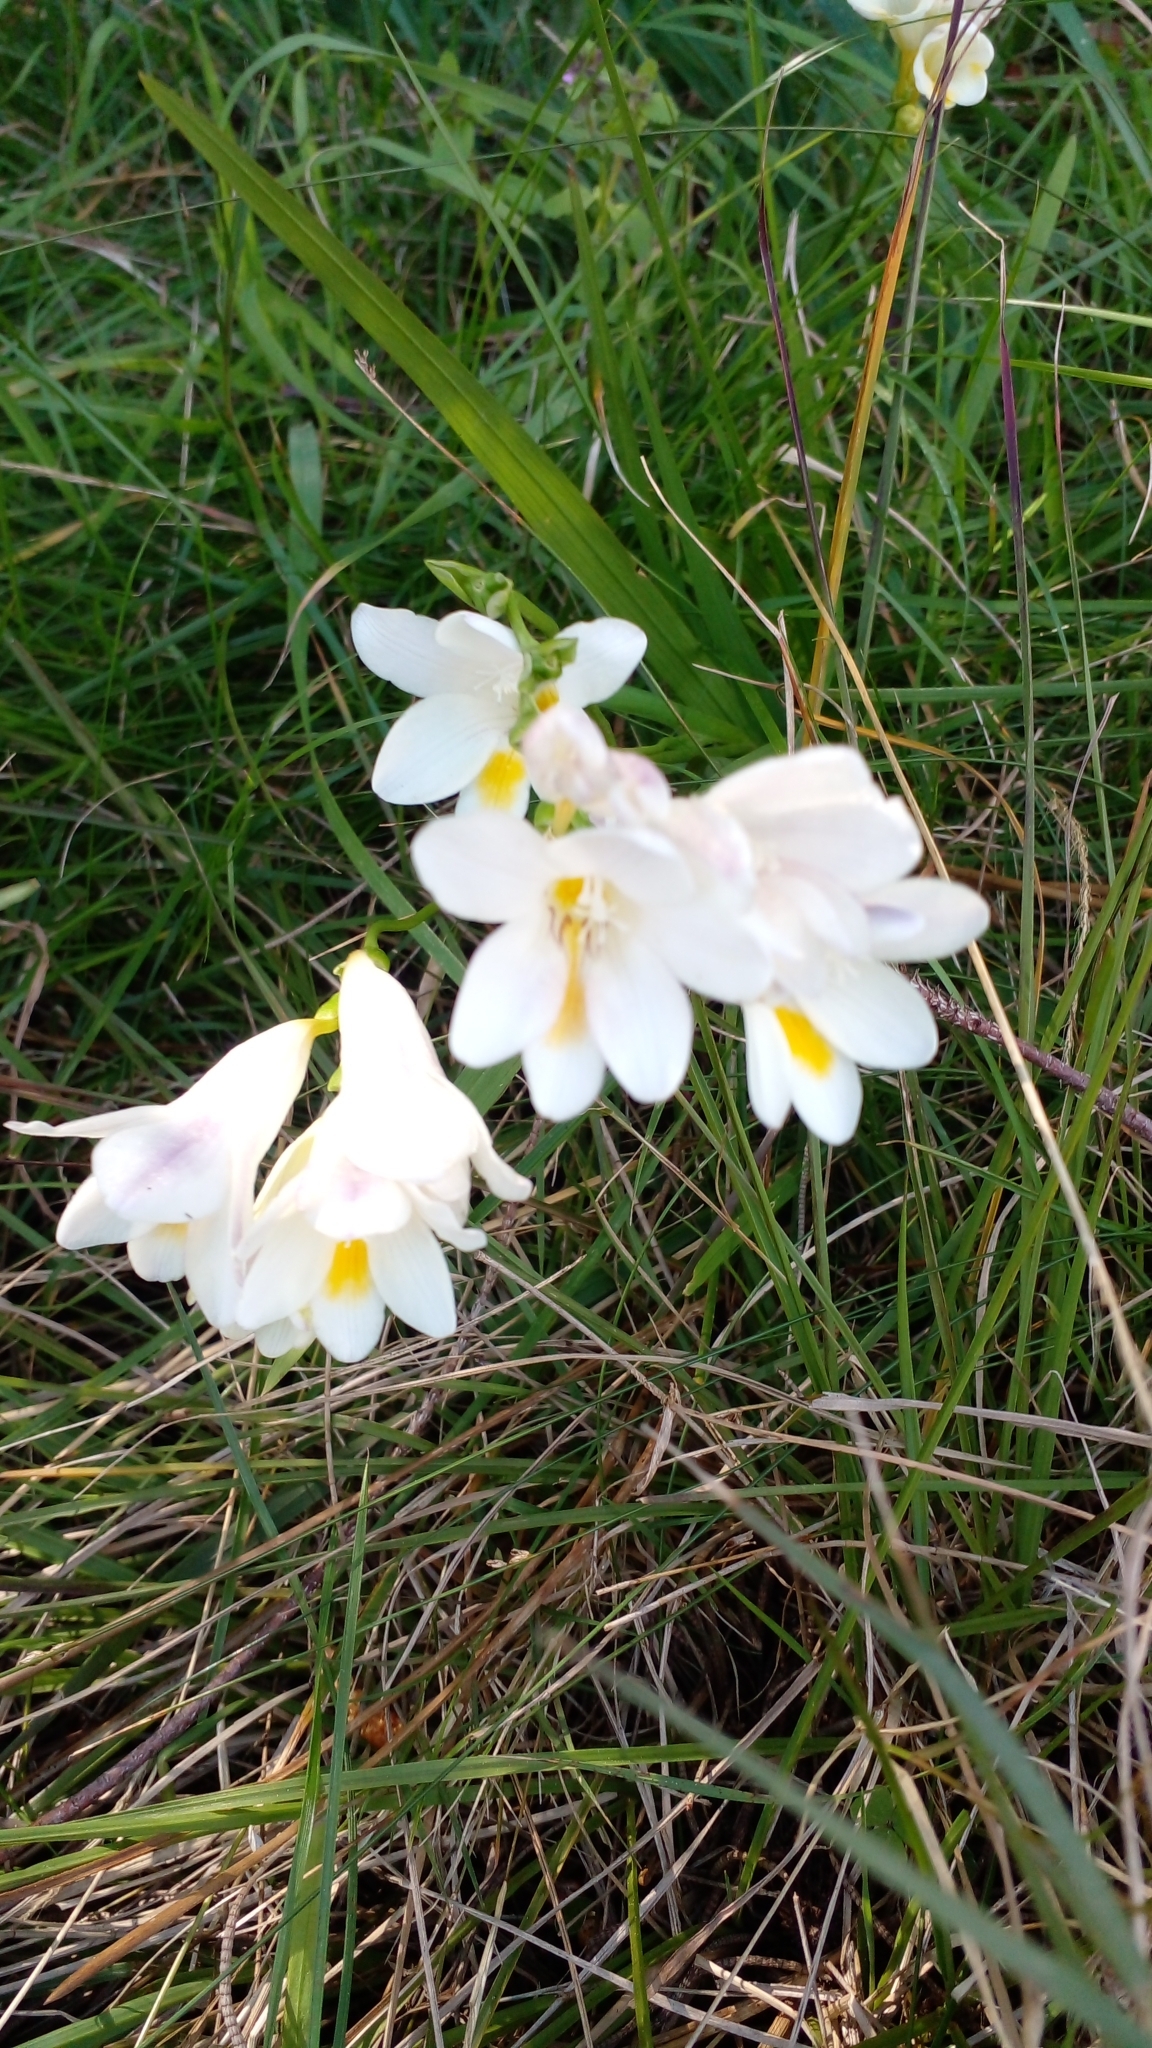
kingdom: Plantae
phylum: Tracheophyta
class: Liliopsida
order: Asparagales
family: Iridaceae
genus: Freesia
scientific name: Freesia leichtlinii
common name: Freesia
